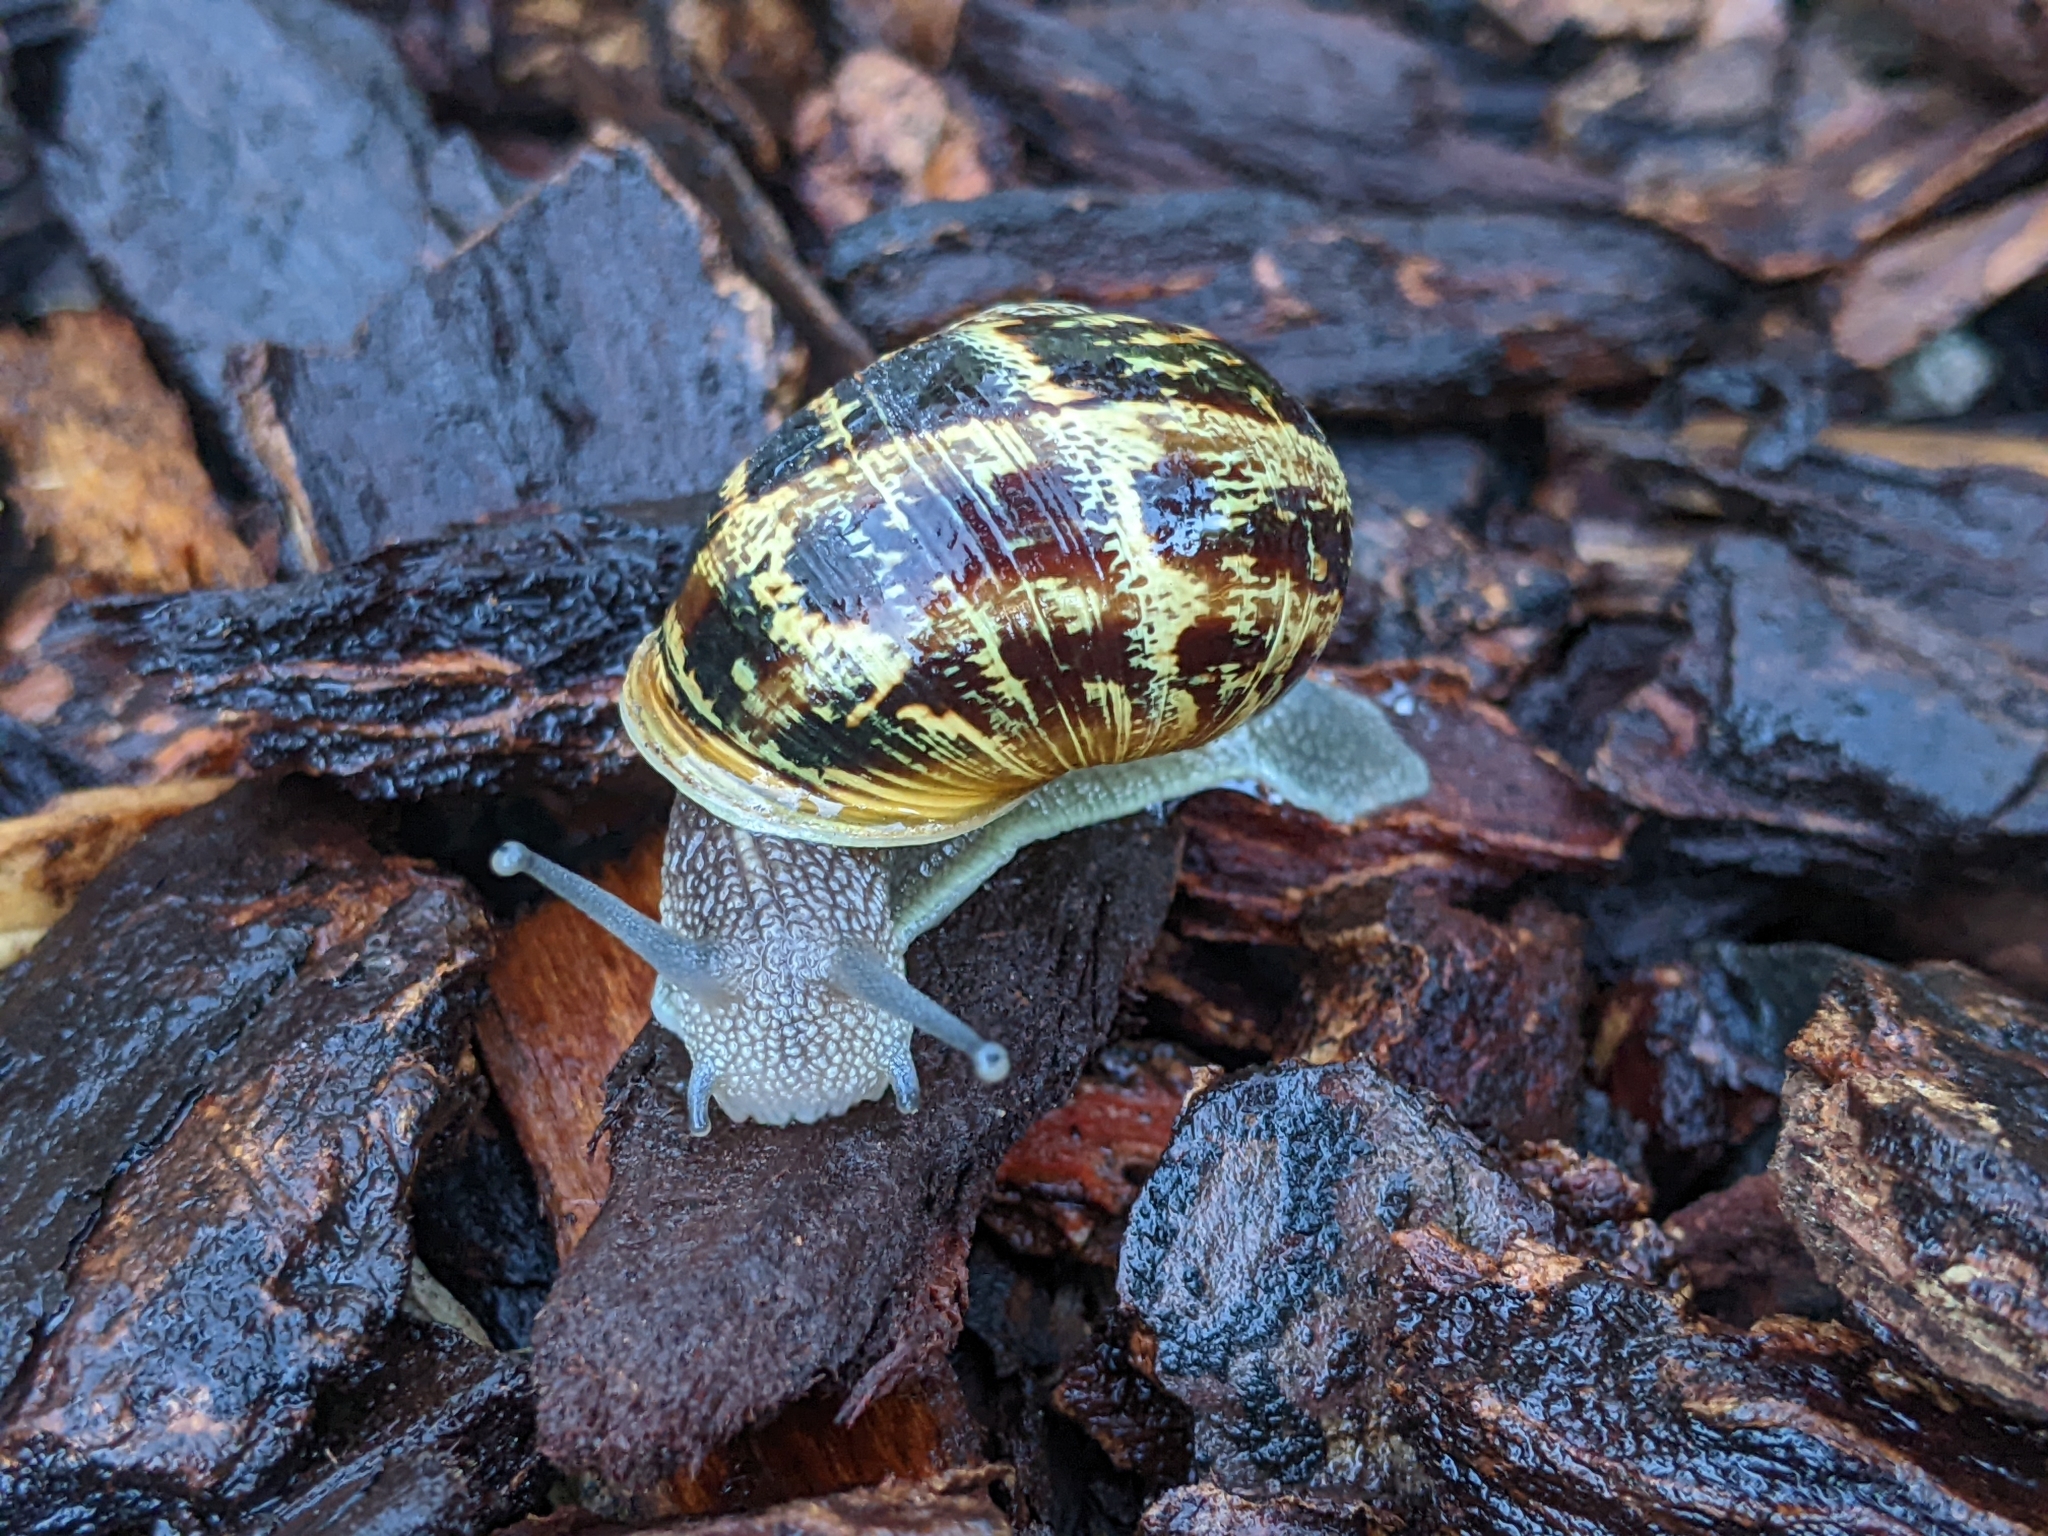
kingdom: Animalia
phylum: Mollusca
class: Gastropoda
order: Stylommatophora
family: Helicidae
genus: Cornu
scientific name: Cornu aspersum
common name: Brown garden snail
